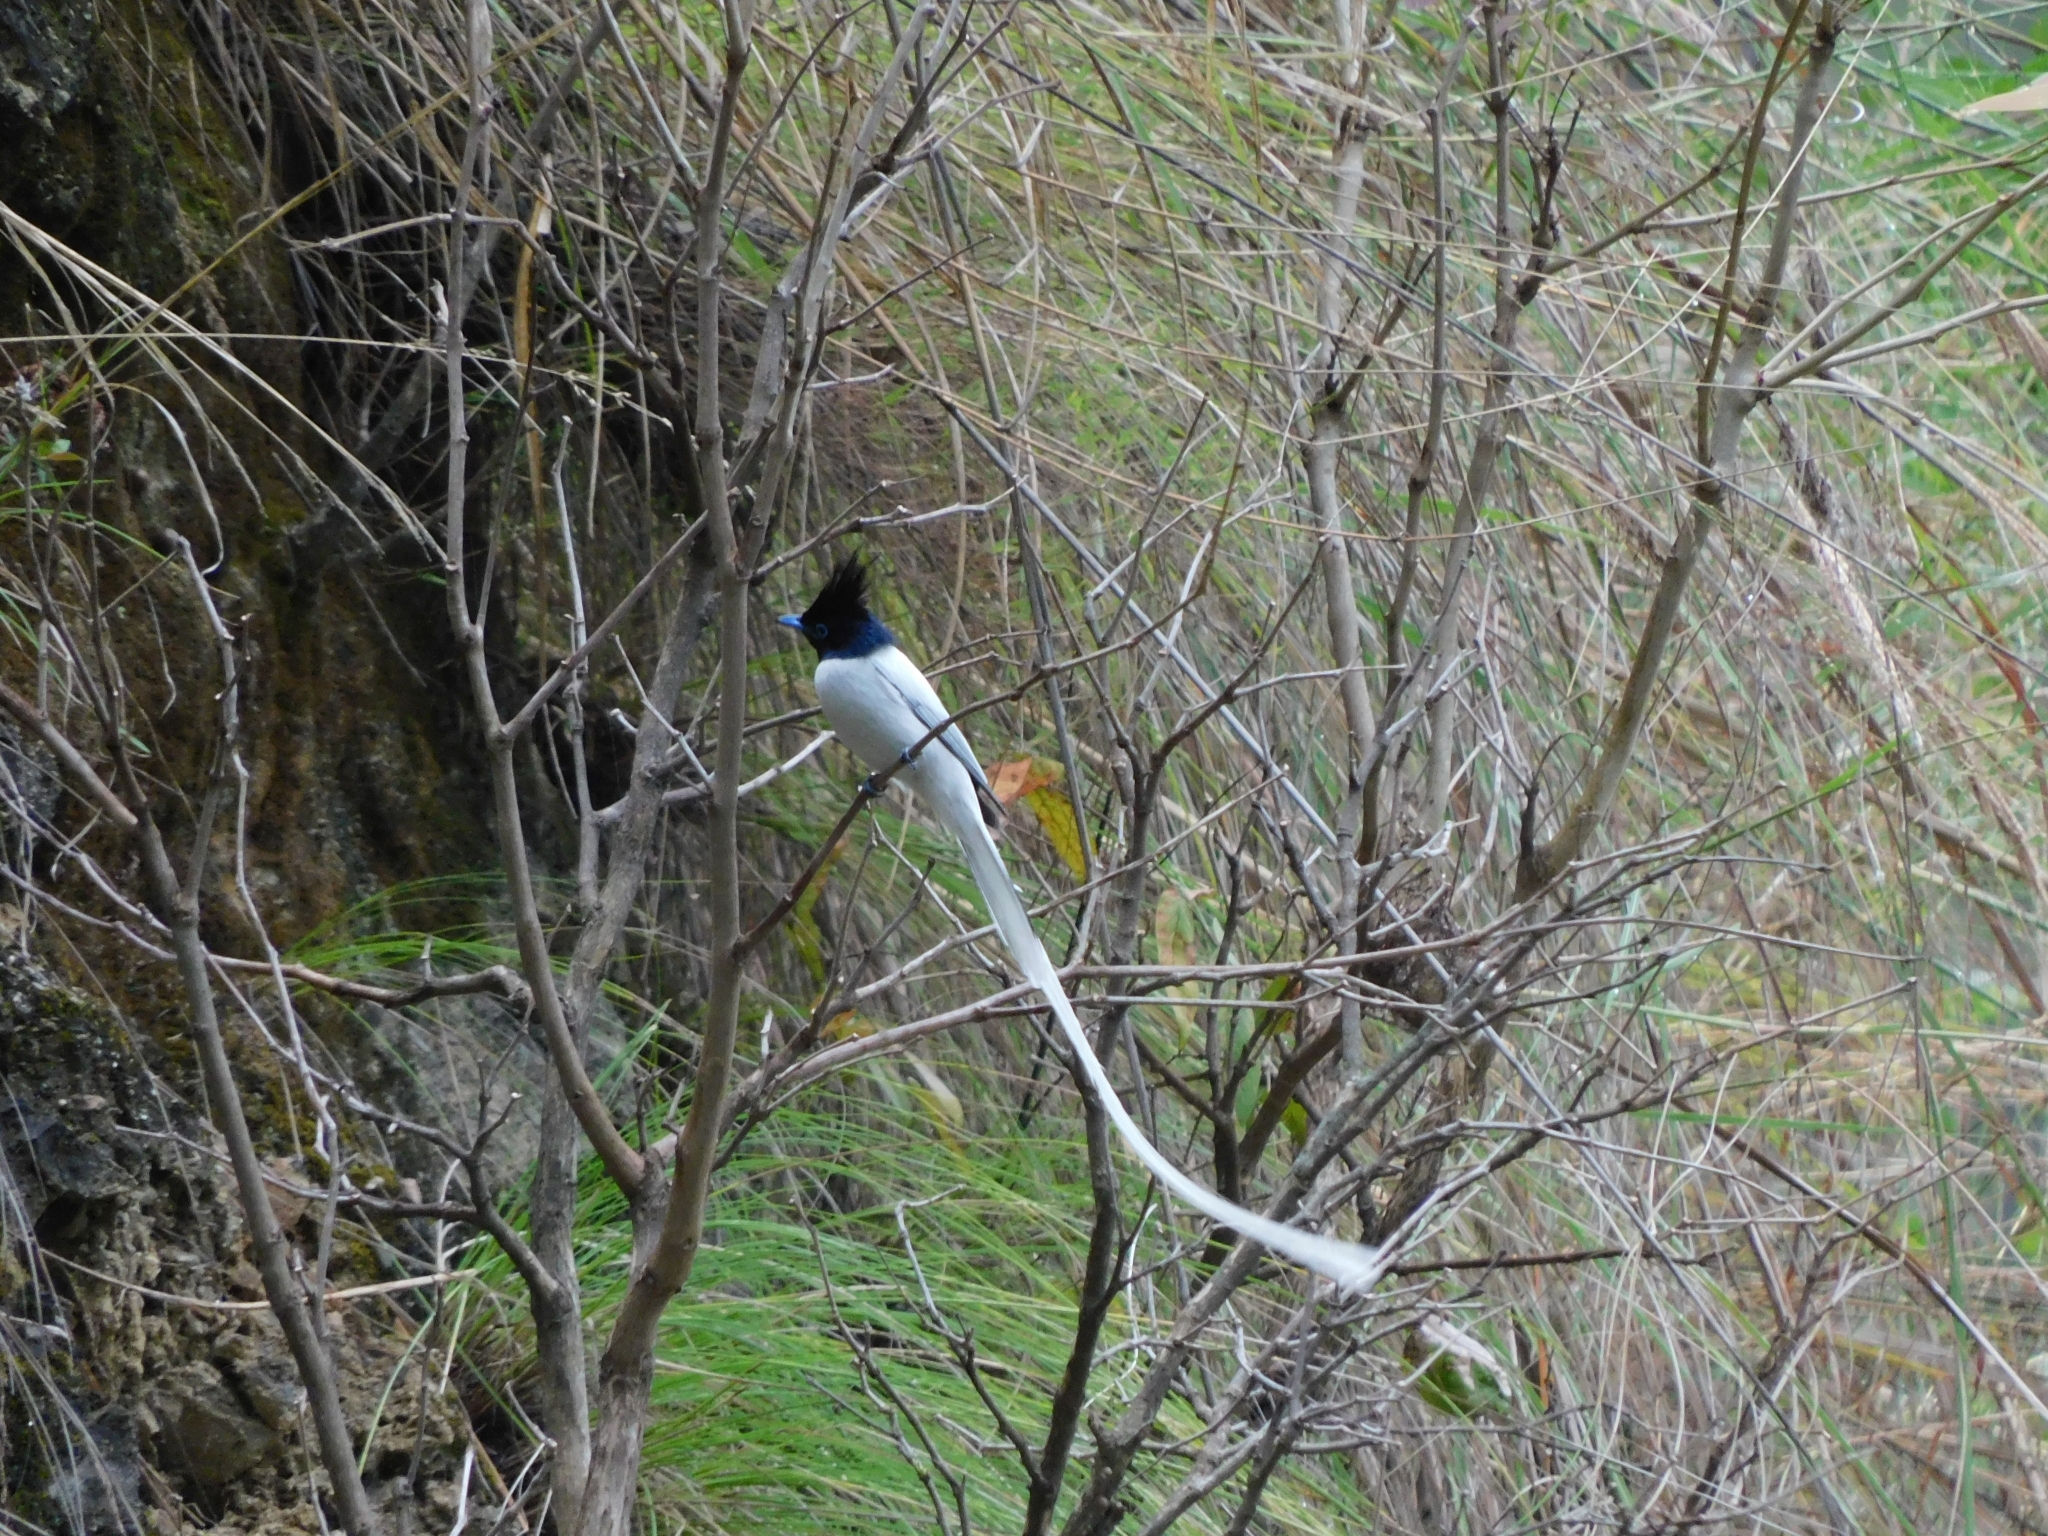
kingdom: Animalia
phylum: Chordata
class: Aves
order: Passeriformes
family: Monarchidae
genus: Terpsiphone
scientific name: Terpsiphone paradisi
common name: Indian paradise flycatcher
